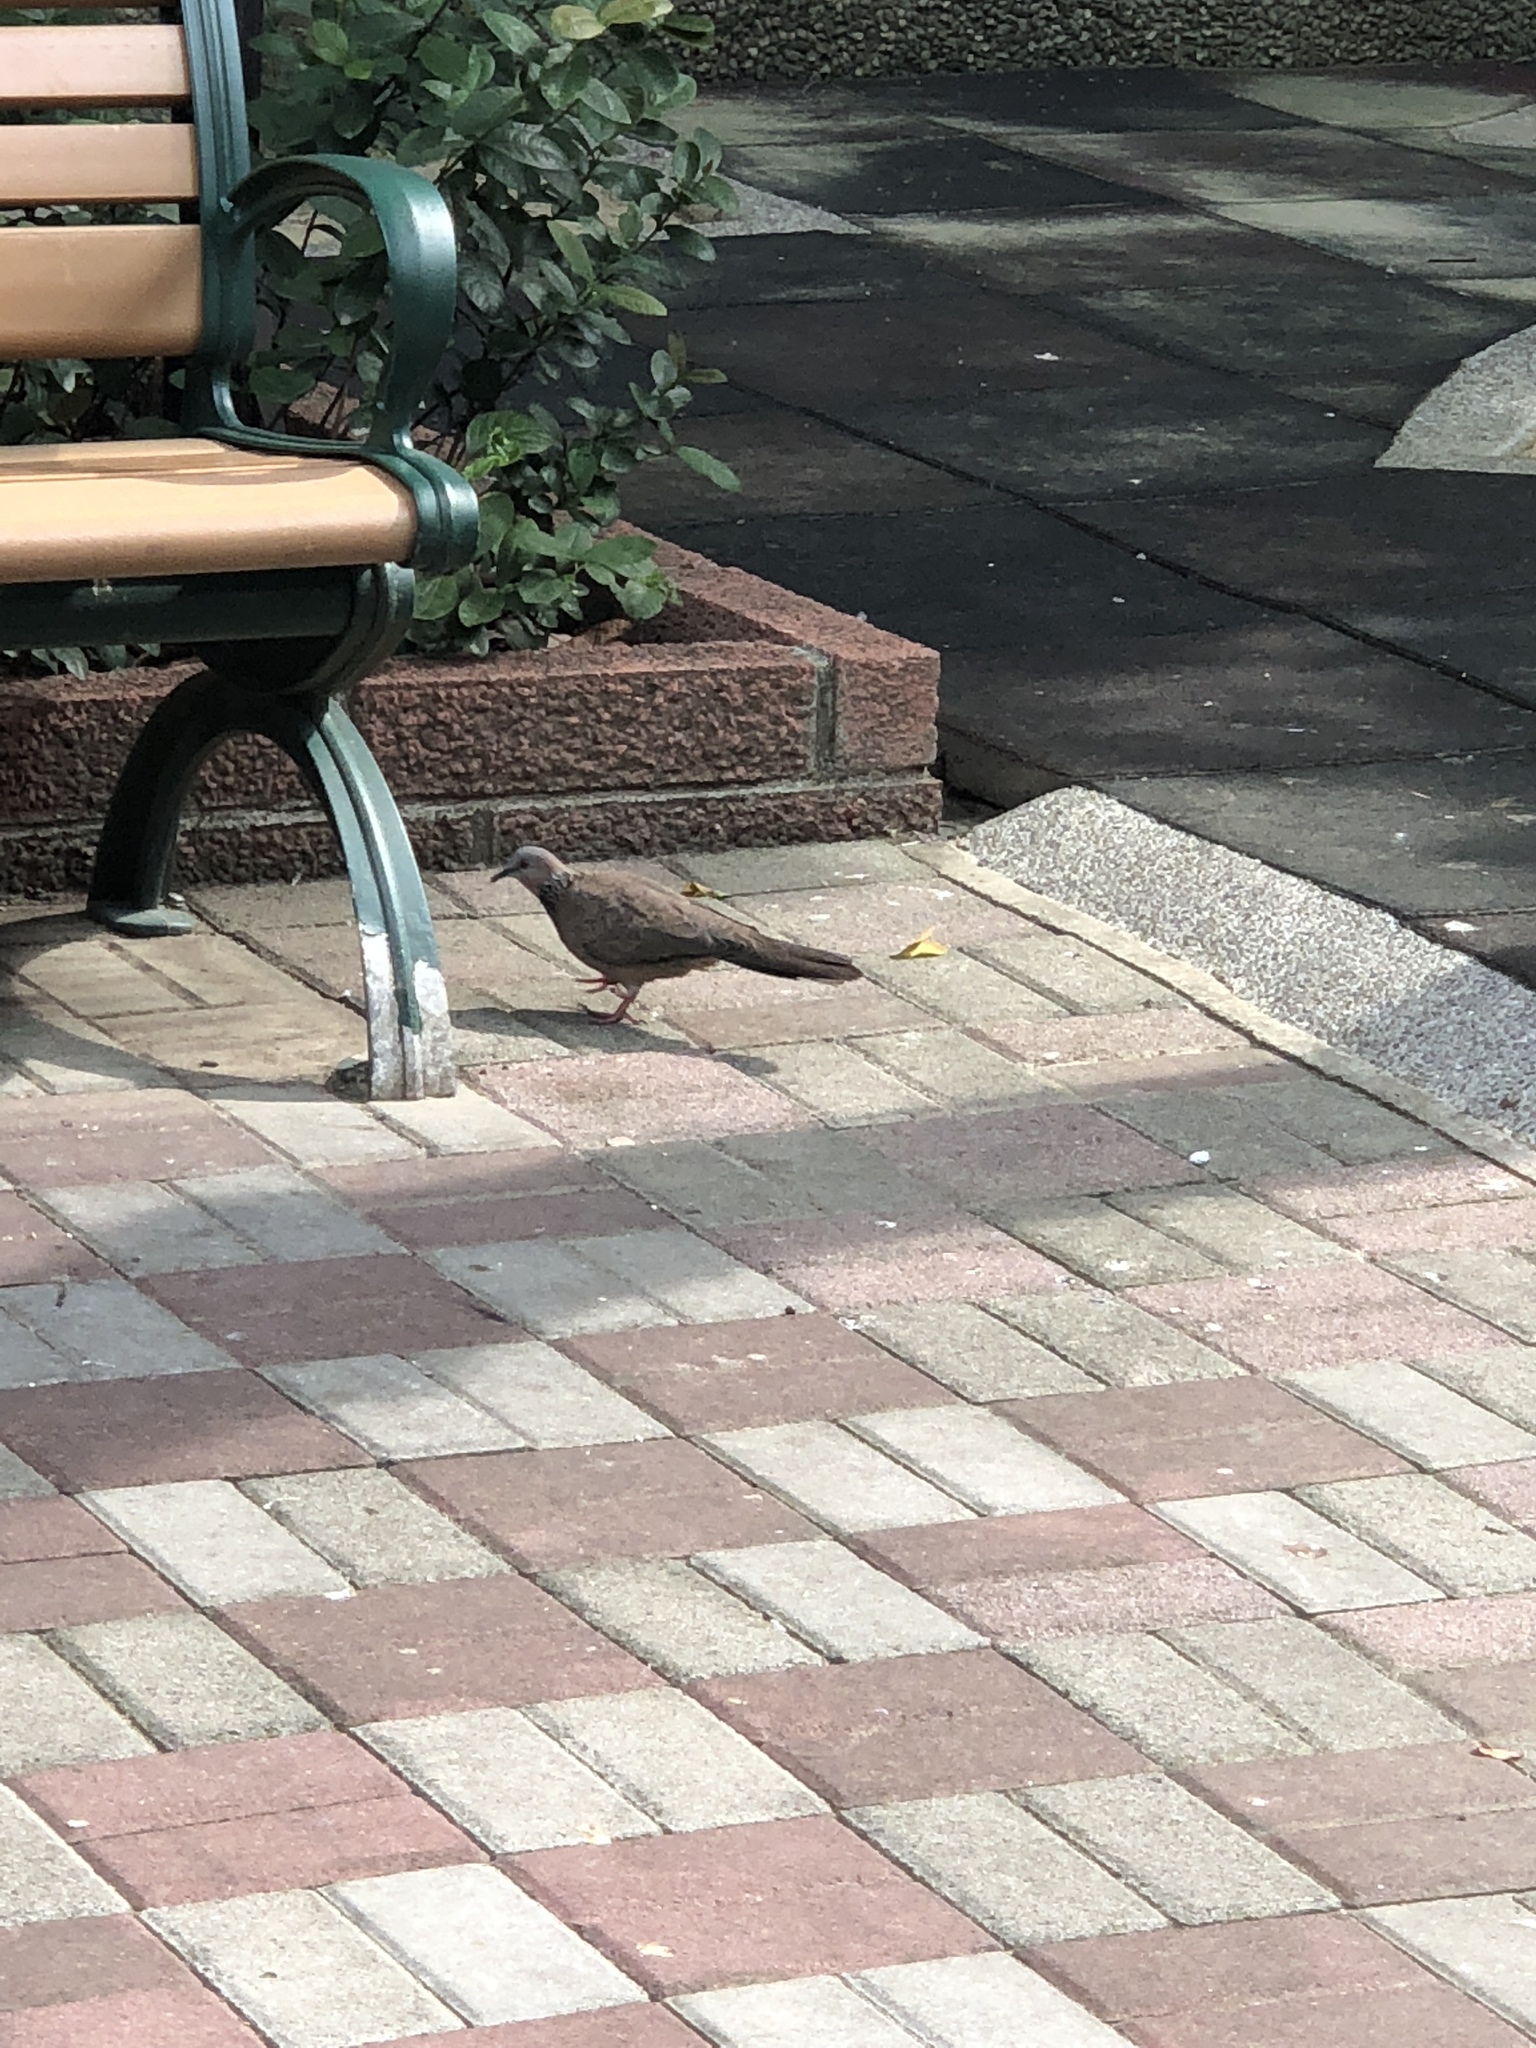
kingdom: Animalia
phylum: Chordata
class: Aves
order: Columbiformes
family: Columbidae
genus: Spilopelia
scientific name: Spilopelia chinensis
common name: Spotted dove
